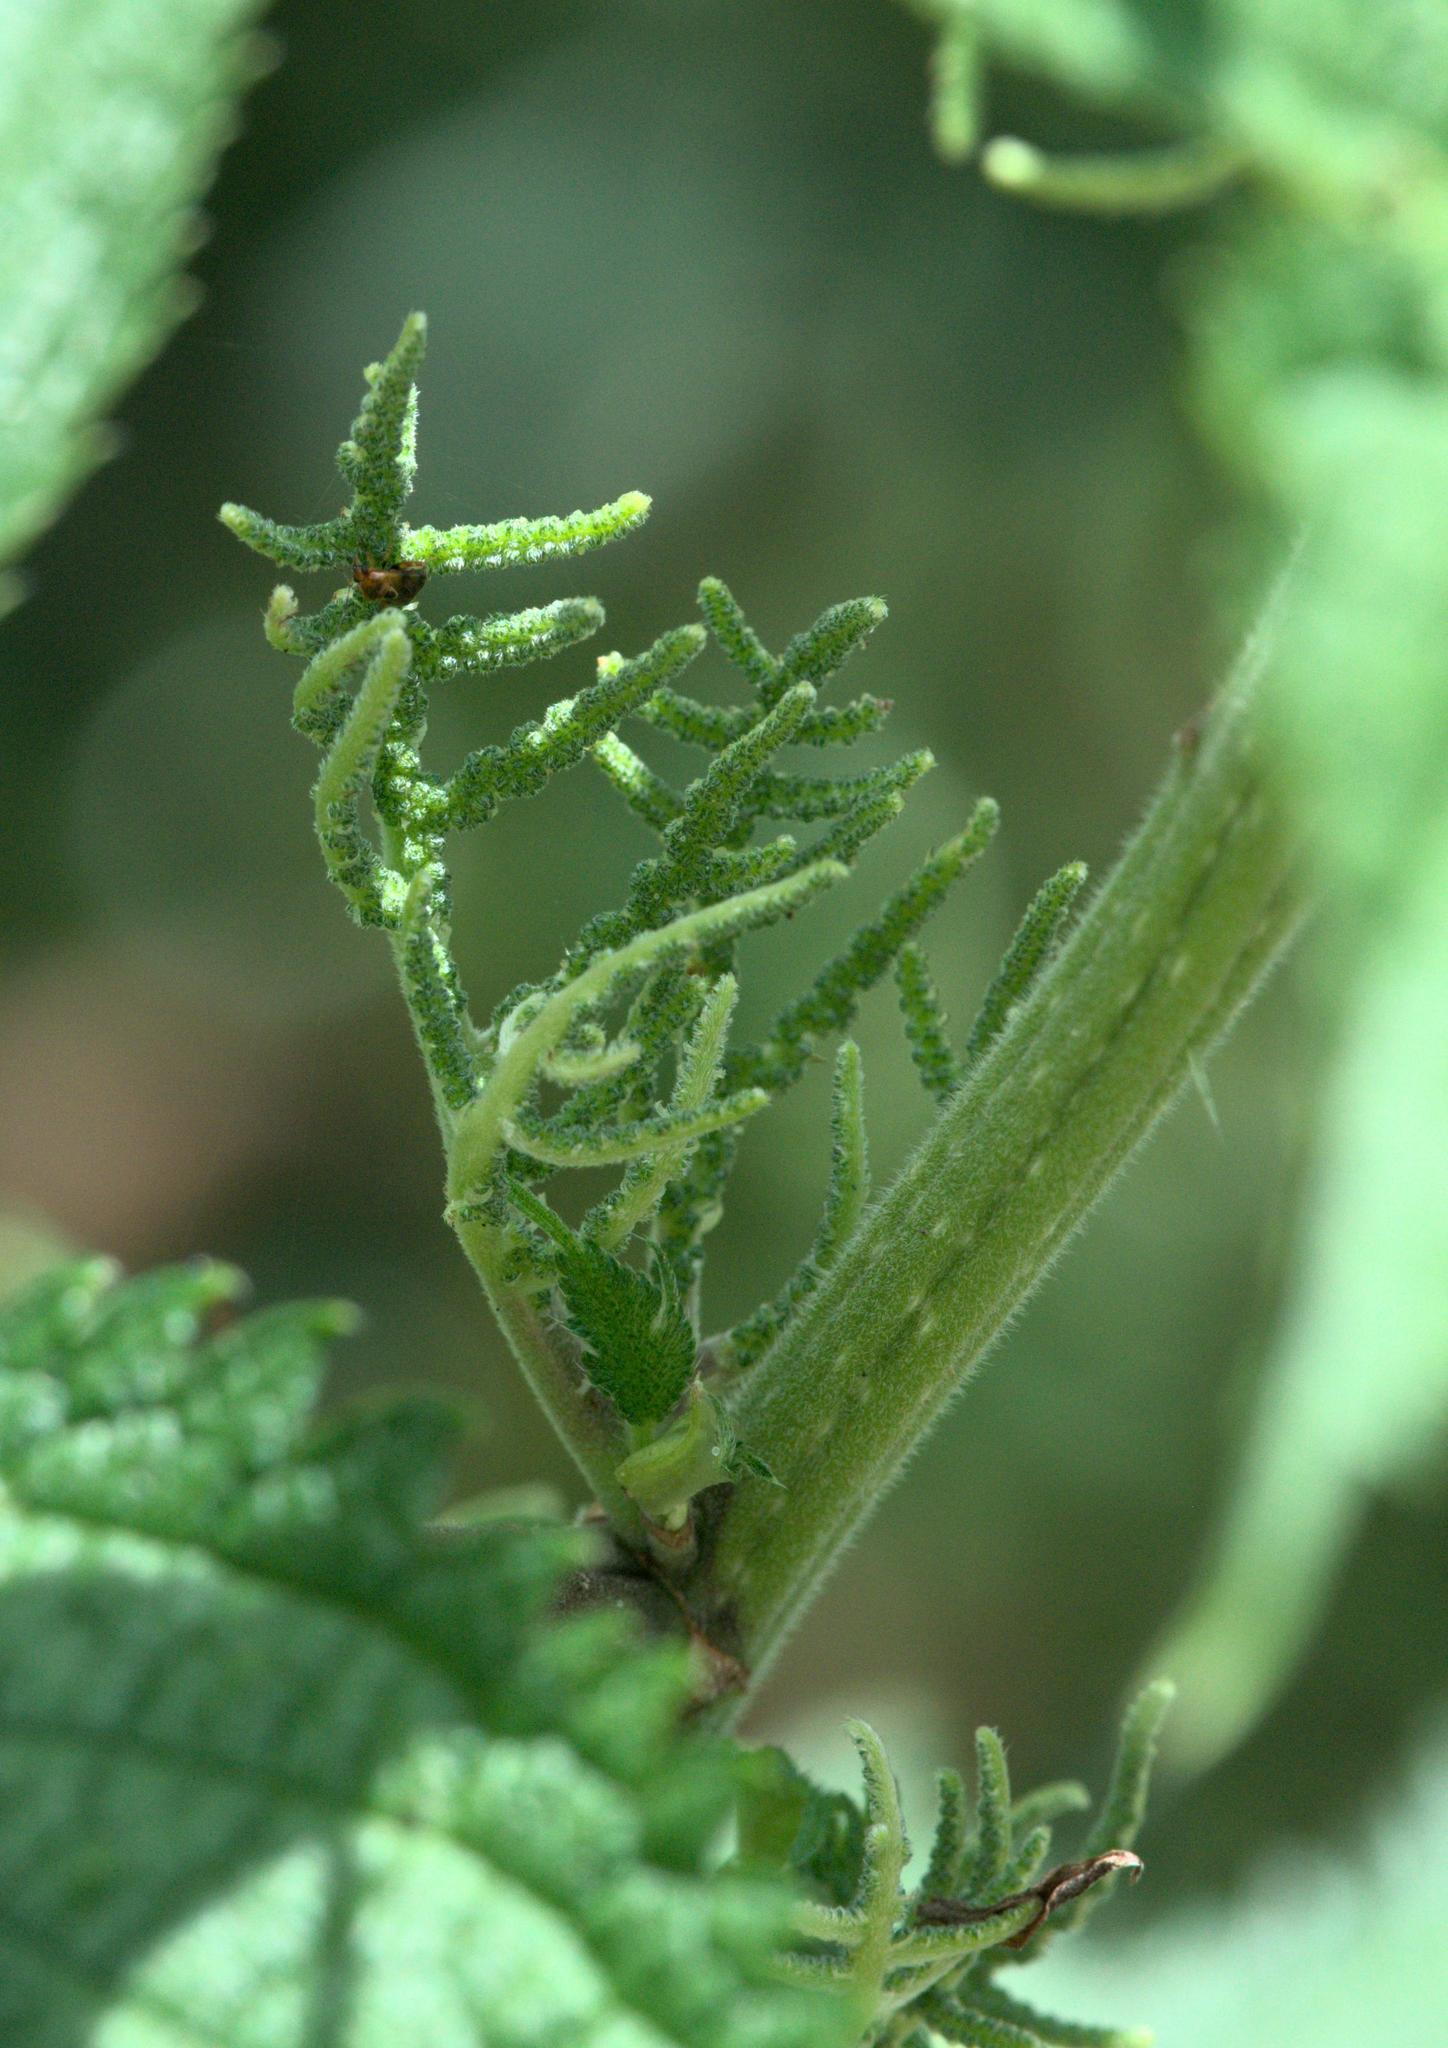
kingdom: Plantae
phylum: Tracheophyta
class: Magnoliopsida
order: Rosales
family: Urticaceae
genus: Girardinia
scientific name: Girardinia diversifolia
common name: Himalayan-nettle
